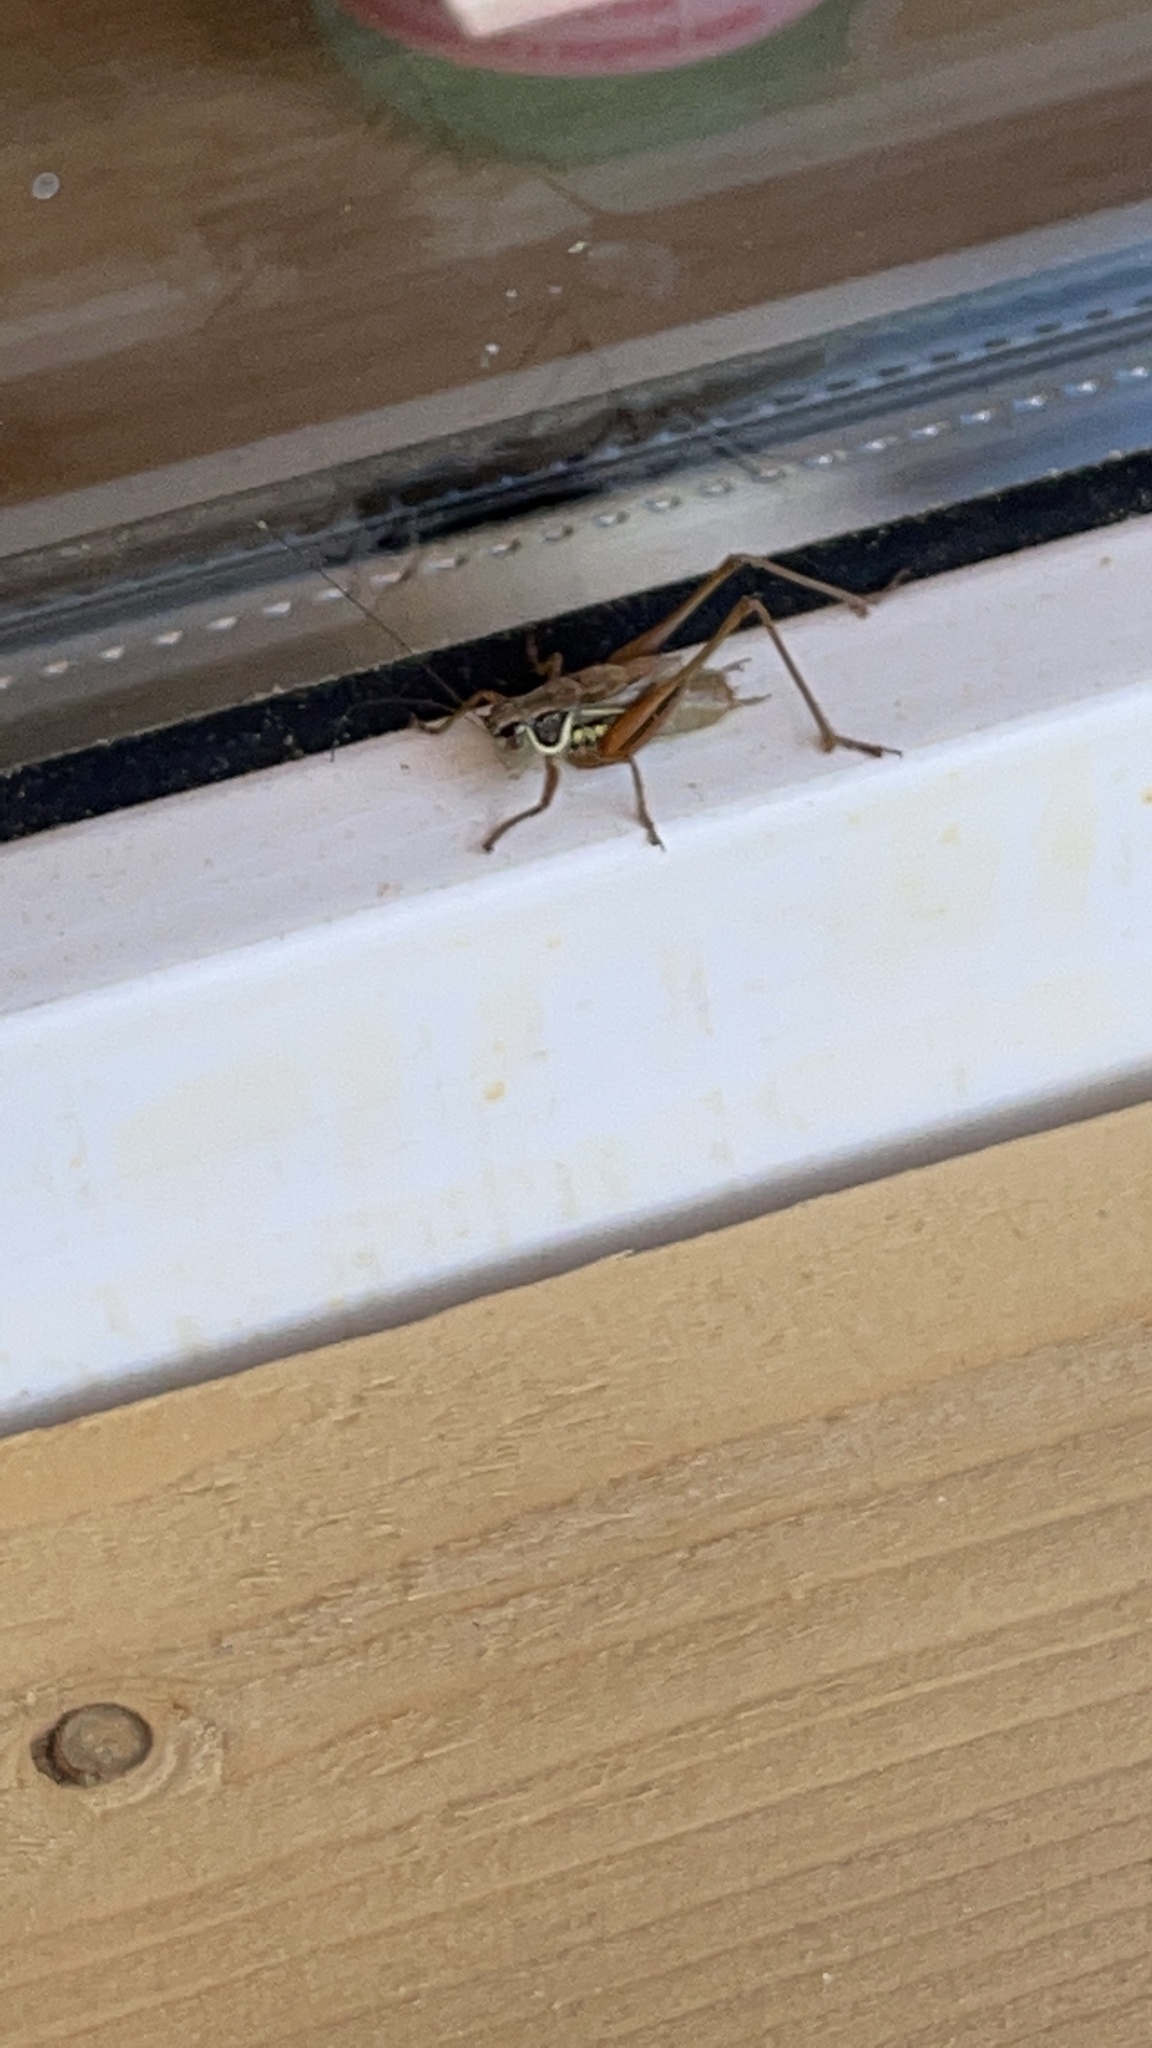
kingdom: Animalia
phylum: Arthropoda
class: Insecta
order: Orthoptera
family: Tettigoniidae
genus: Roeseliana
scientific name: Roeseliana roeselii
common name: Roesel's bush cricket
